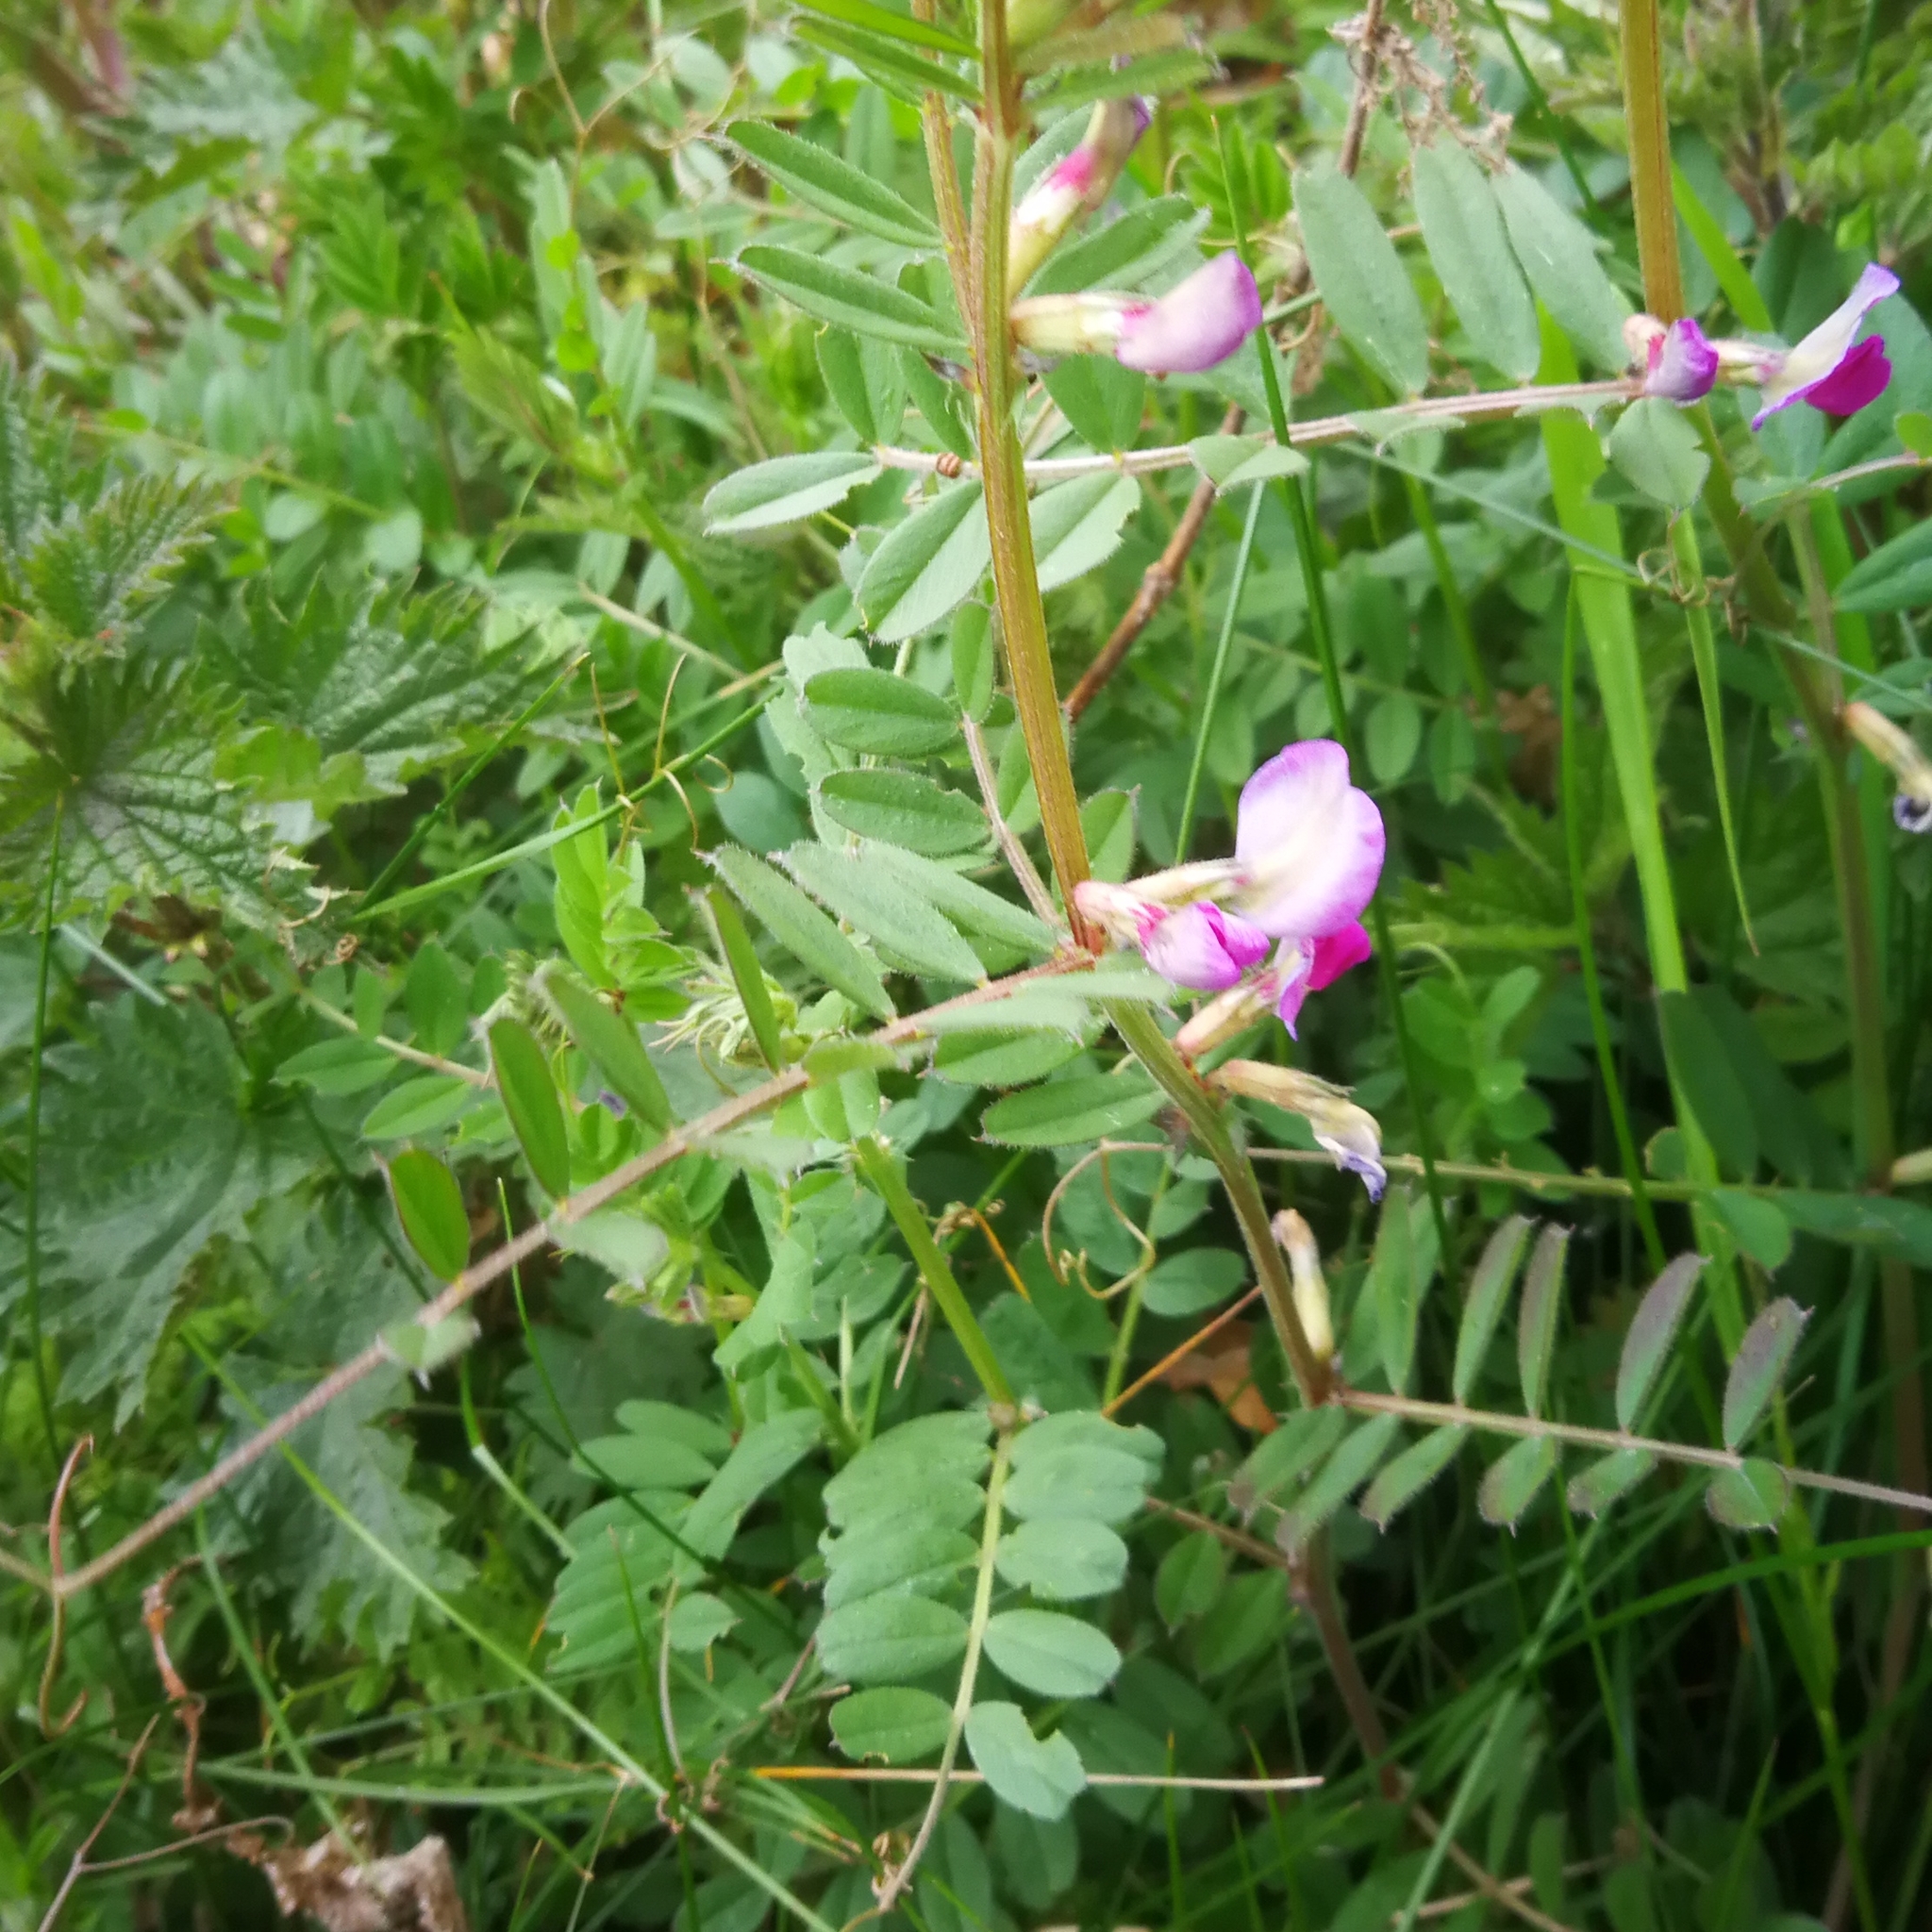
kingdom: Plantae
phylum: Tracheophyta
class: Magnoliopsida
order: Fabales
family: Fabaceae
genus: Vicia
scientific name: Vicia sativa
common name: Garden vetch
